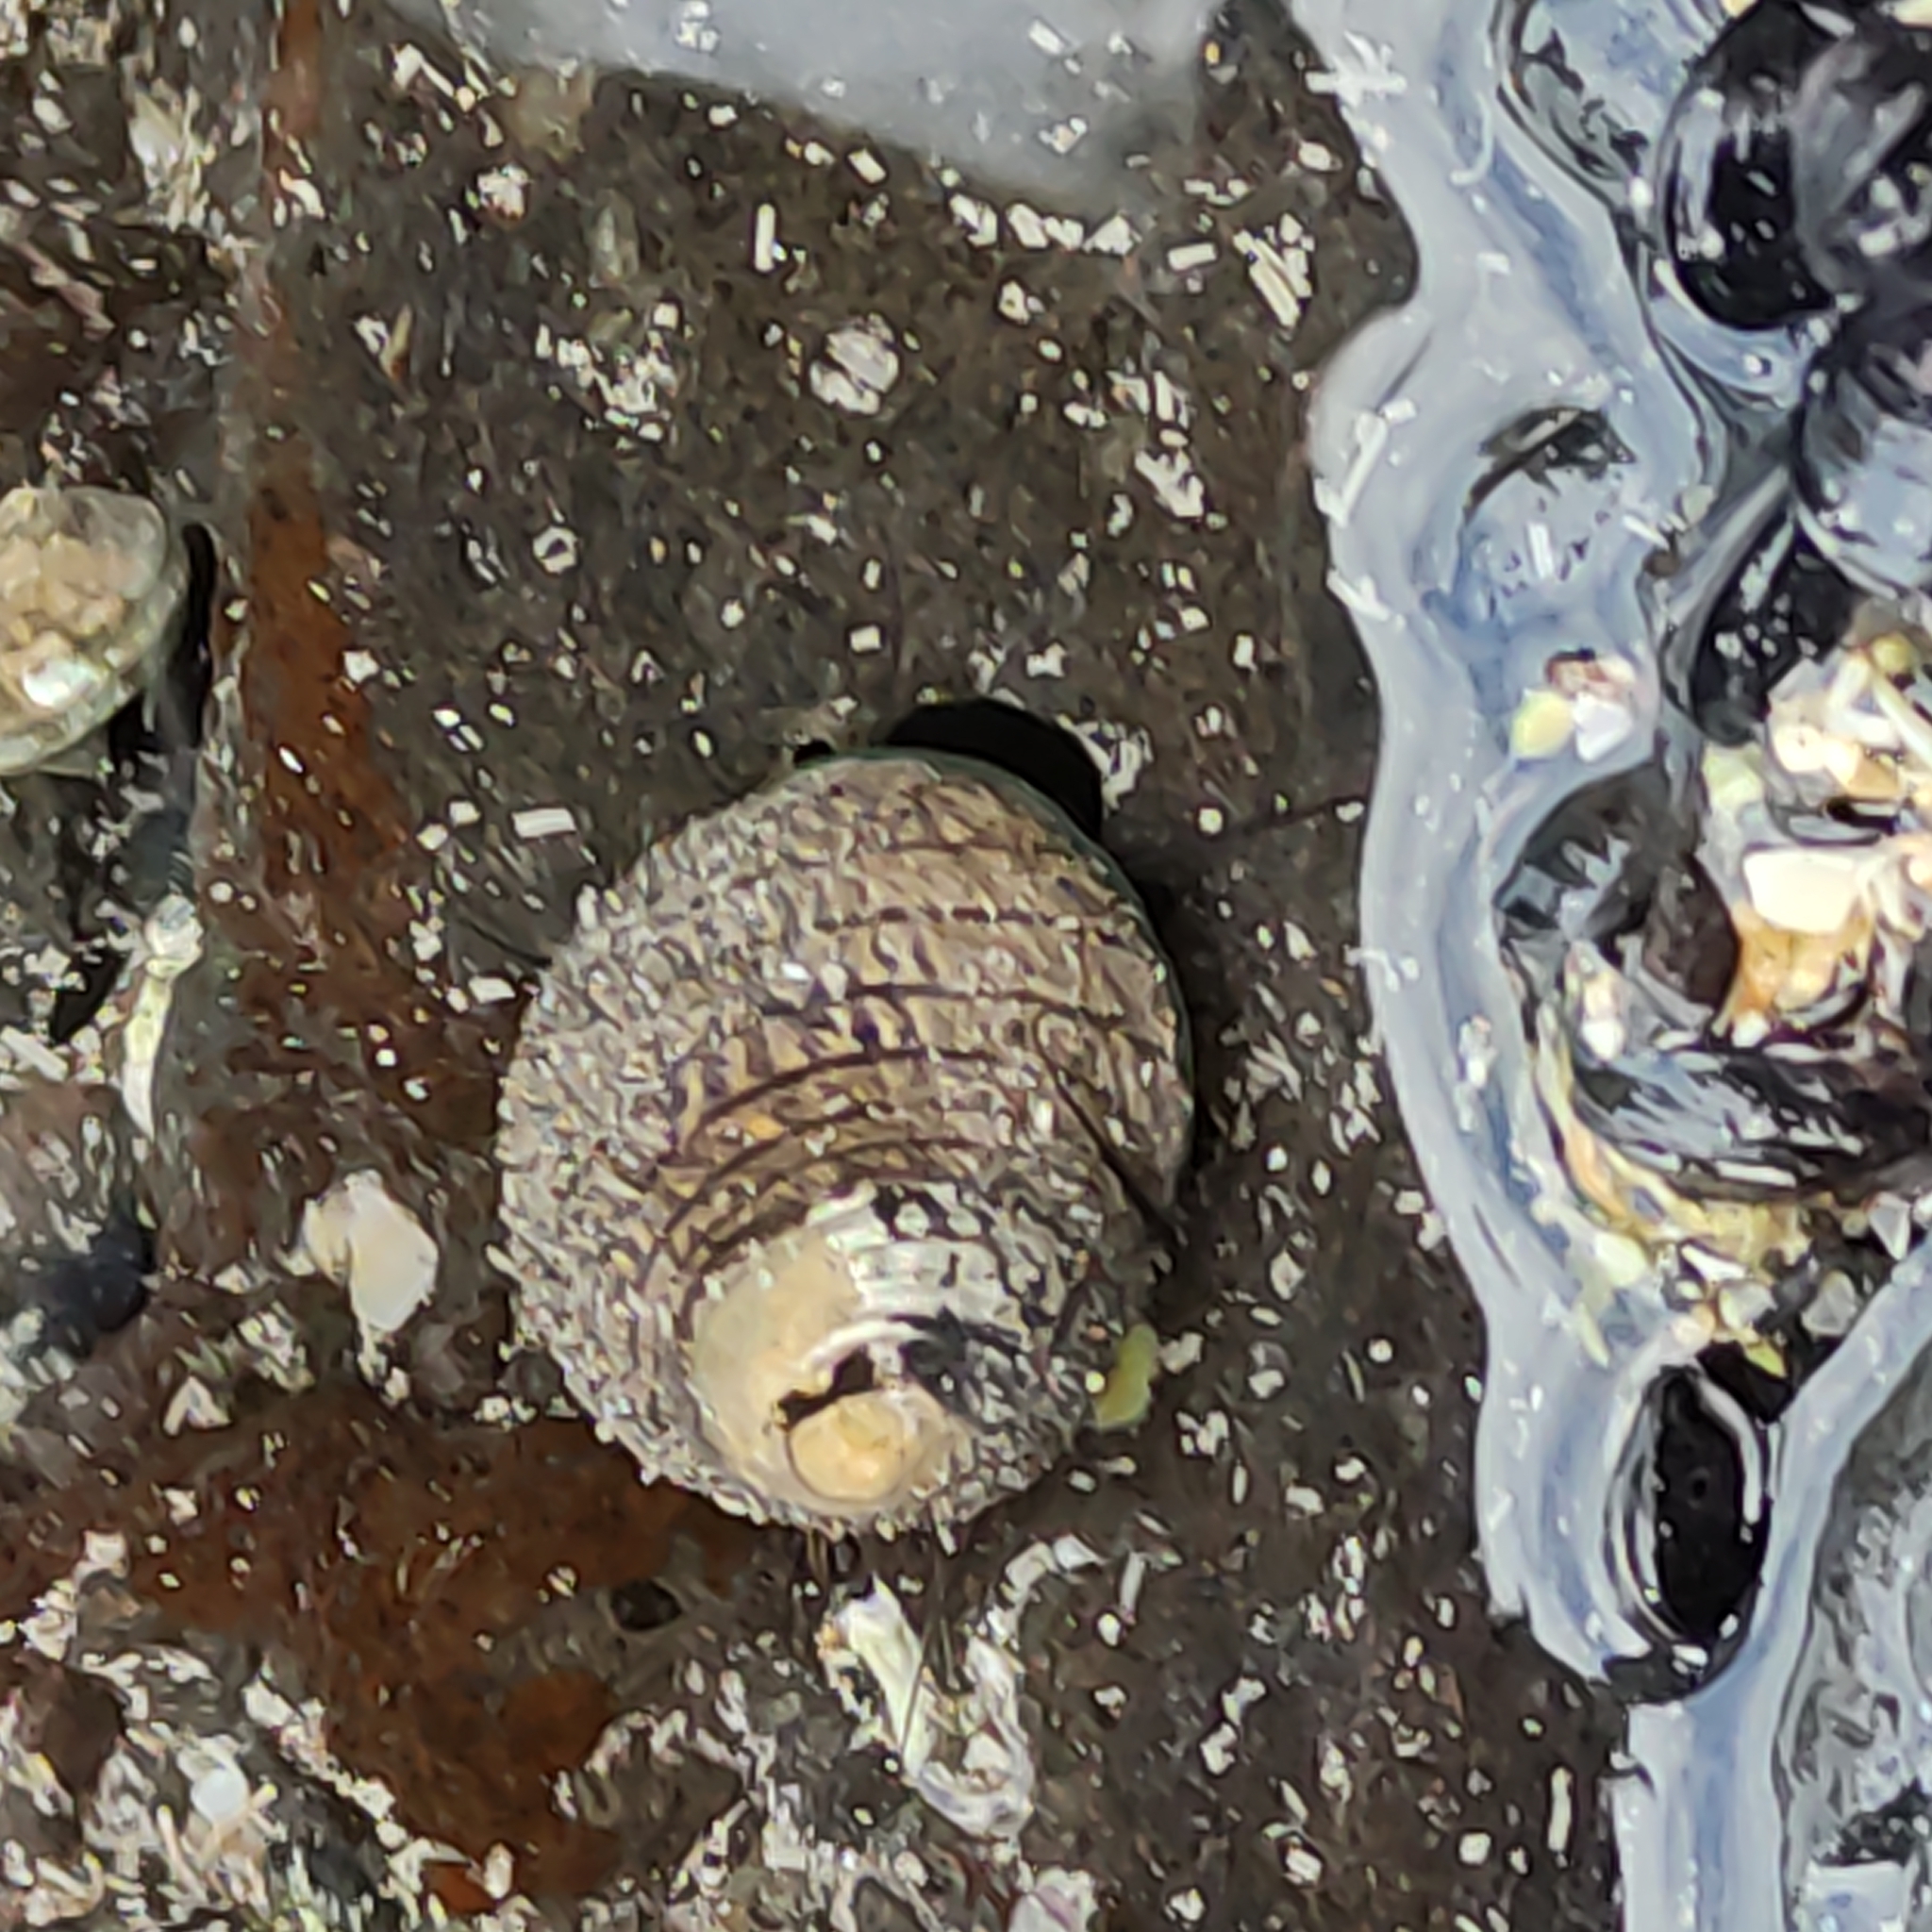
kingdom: Animalia
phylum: Mollusca
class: Gastropoda
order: Trochida
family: Trochidae
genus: Diloma
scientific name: Diloma aethiops
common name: Scorched monodont
